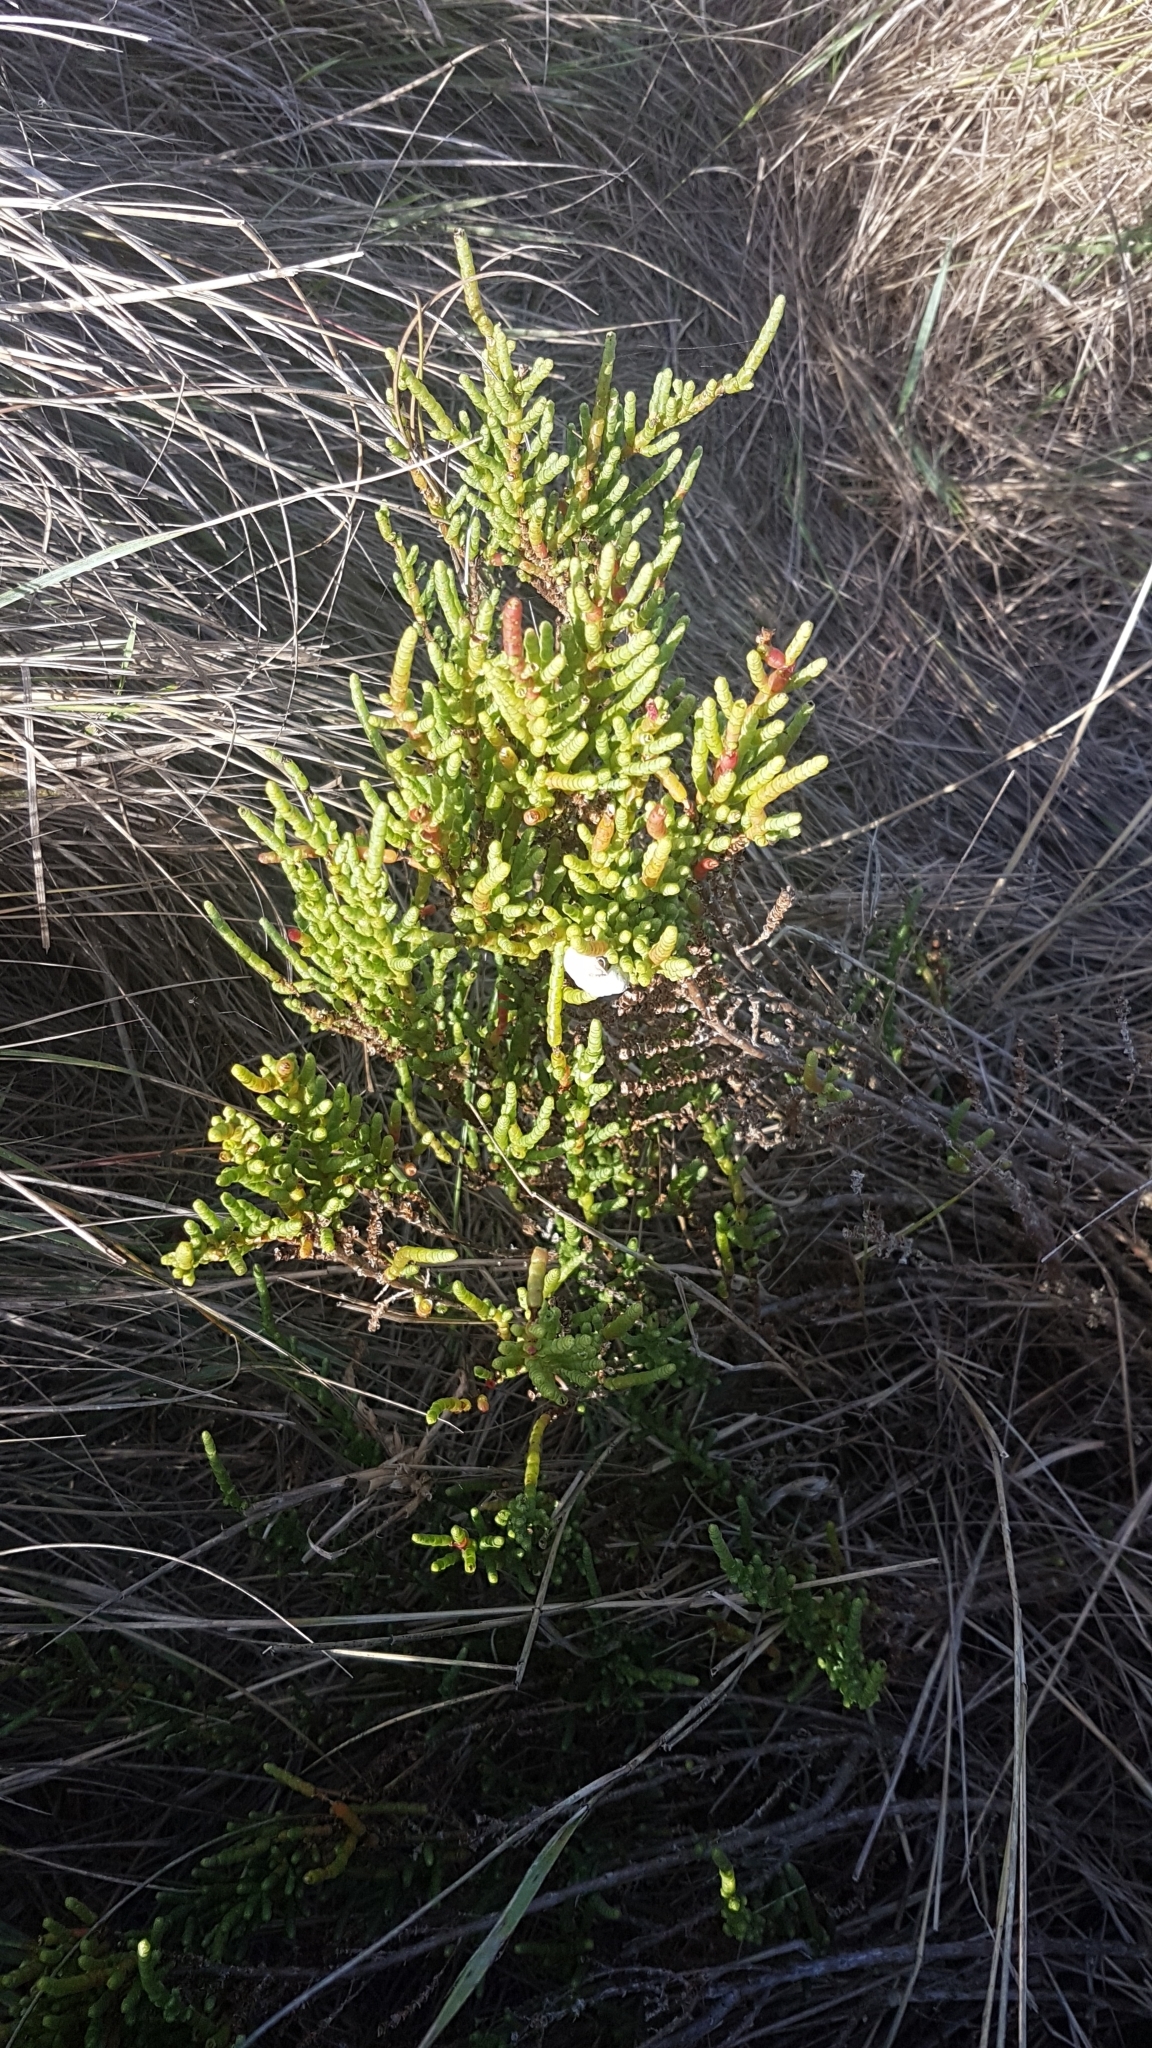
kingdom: Plantae
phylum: Tracheophyta
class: Magnoliopsida
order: Caryophyllales
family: Amaranthaceae
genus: Arthrocaulon
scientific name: Arthrocaulon macrostachyum
